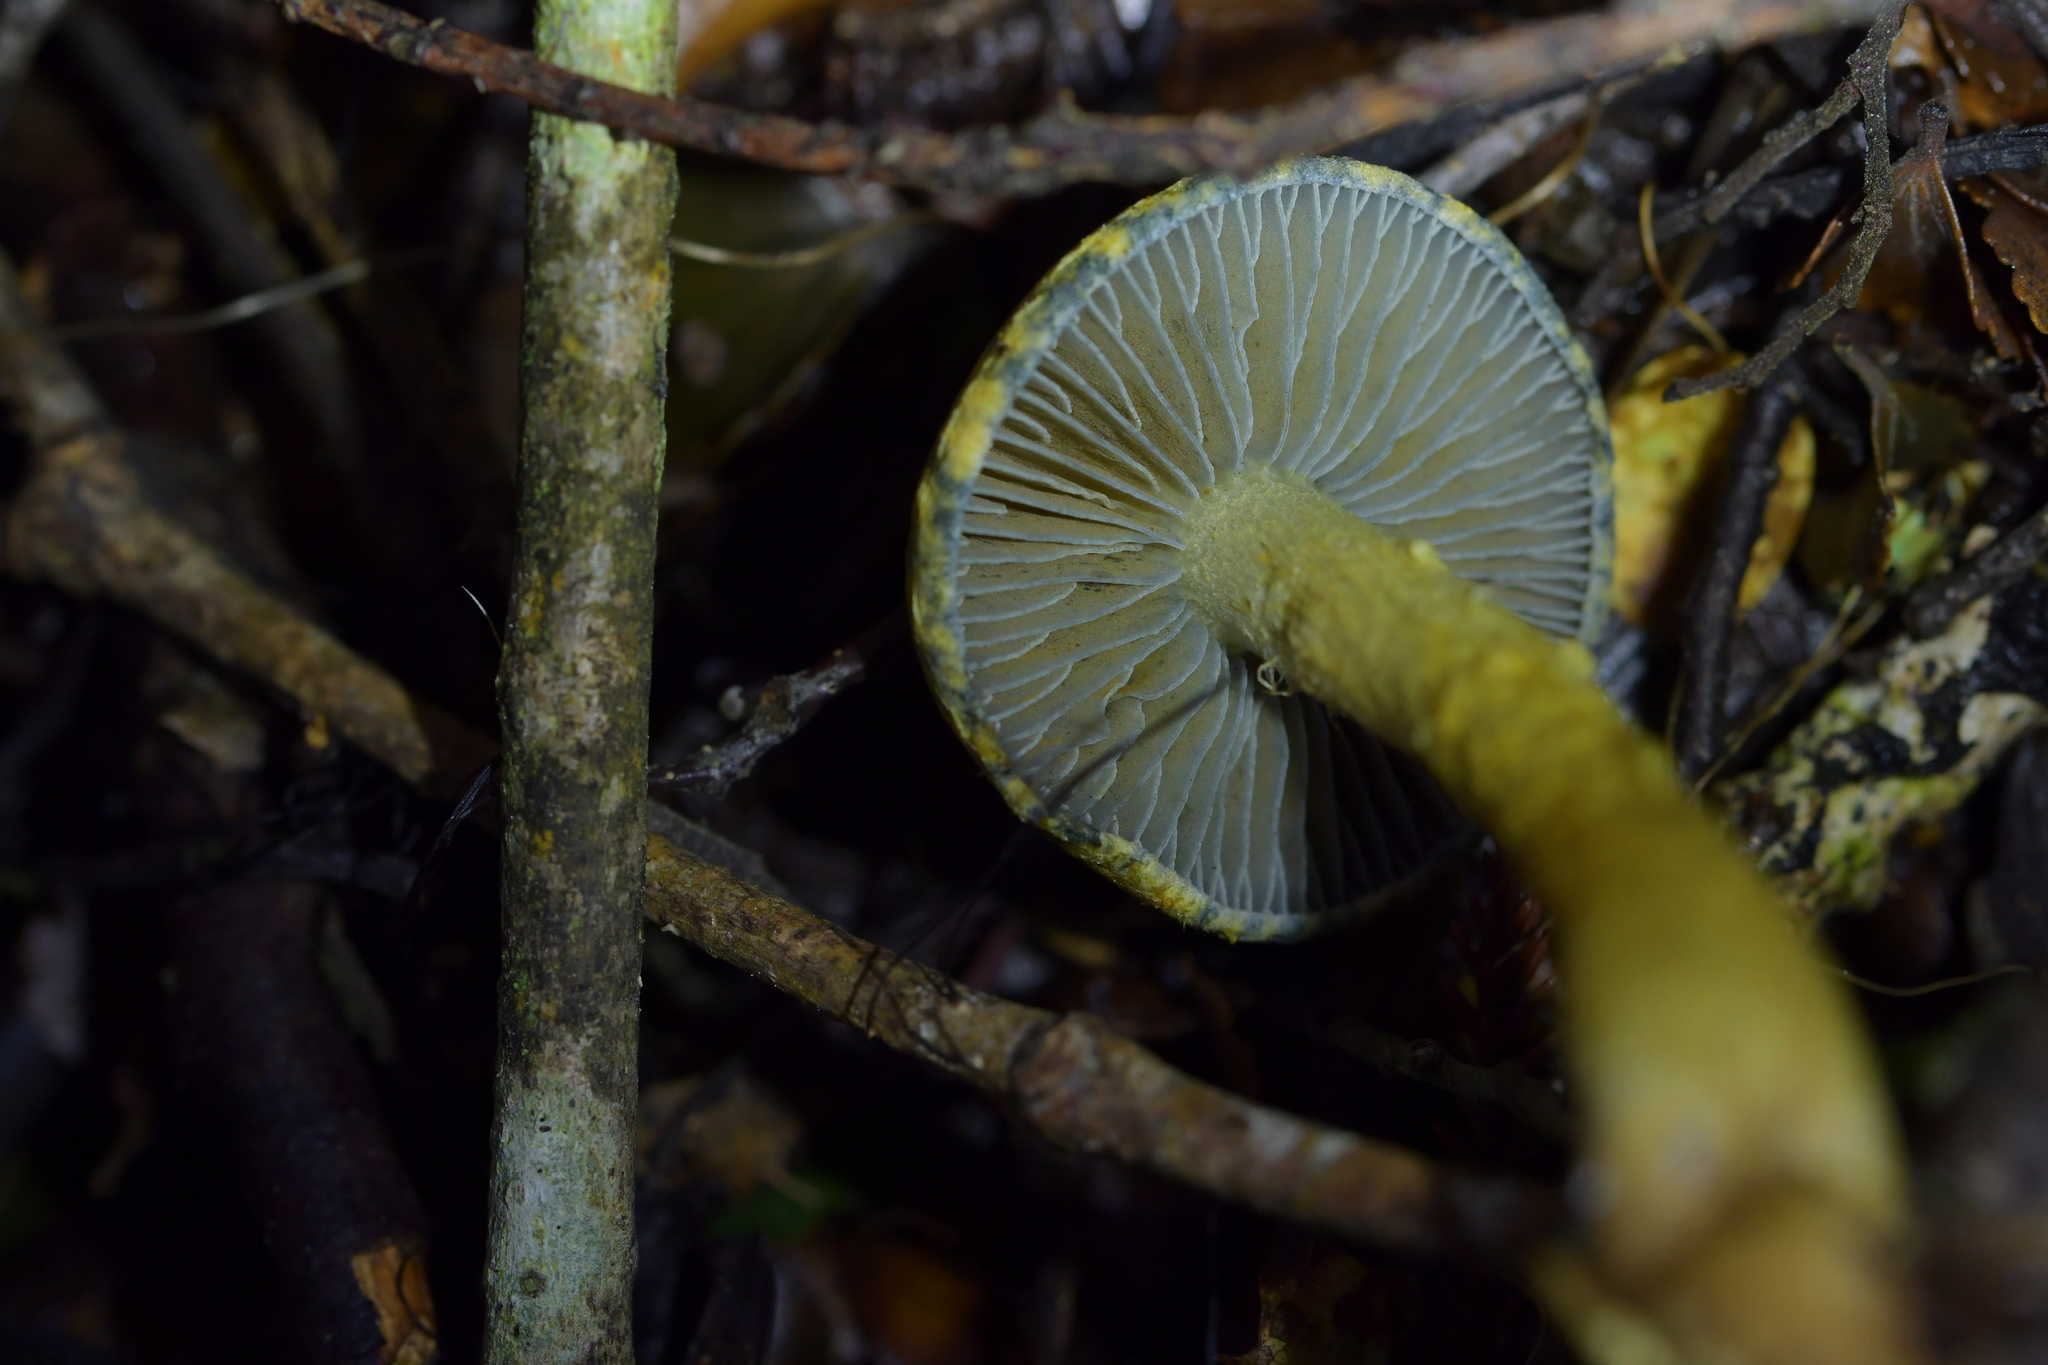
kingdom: Fungi
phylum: Basidiomycota
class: Agaricomycetes
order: Agaricales
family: Cortinariaceae
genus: Cortinarius
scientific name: Cortinarius aerugineoconicus
